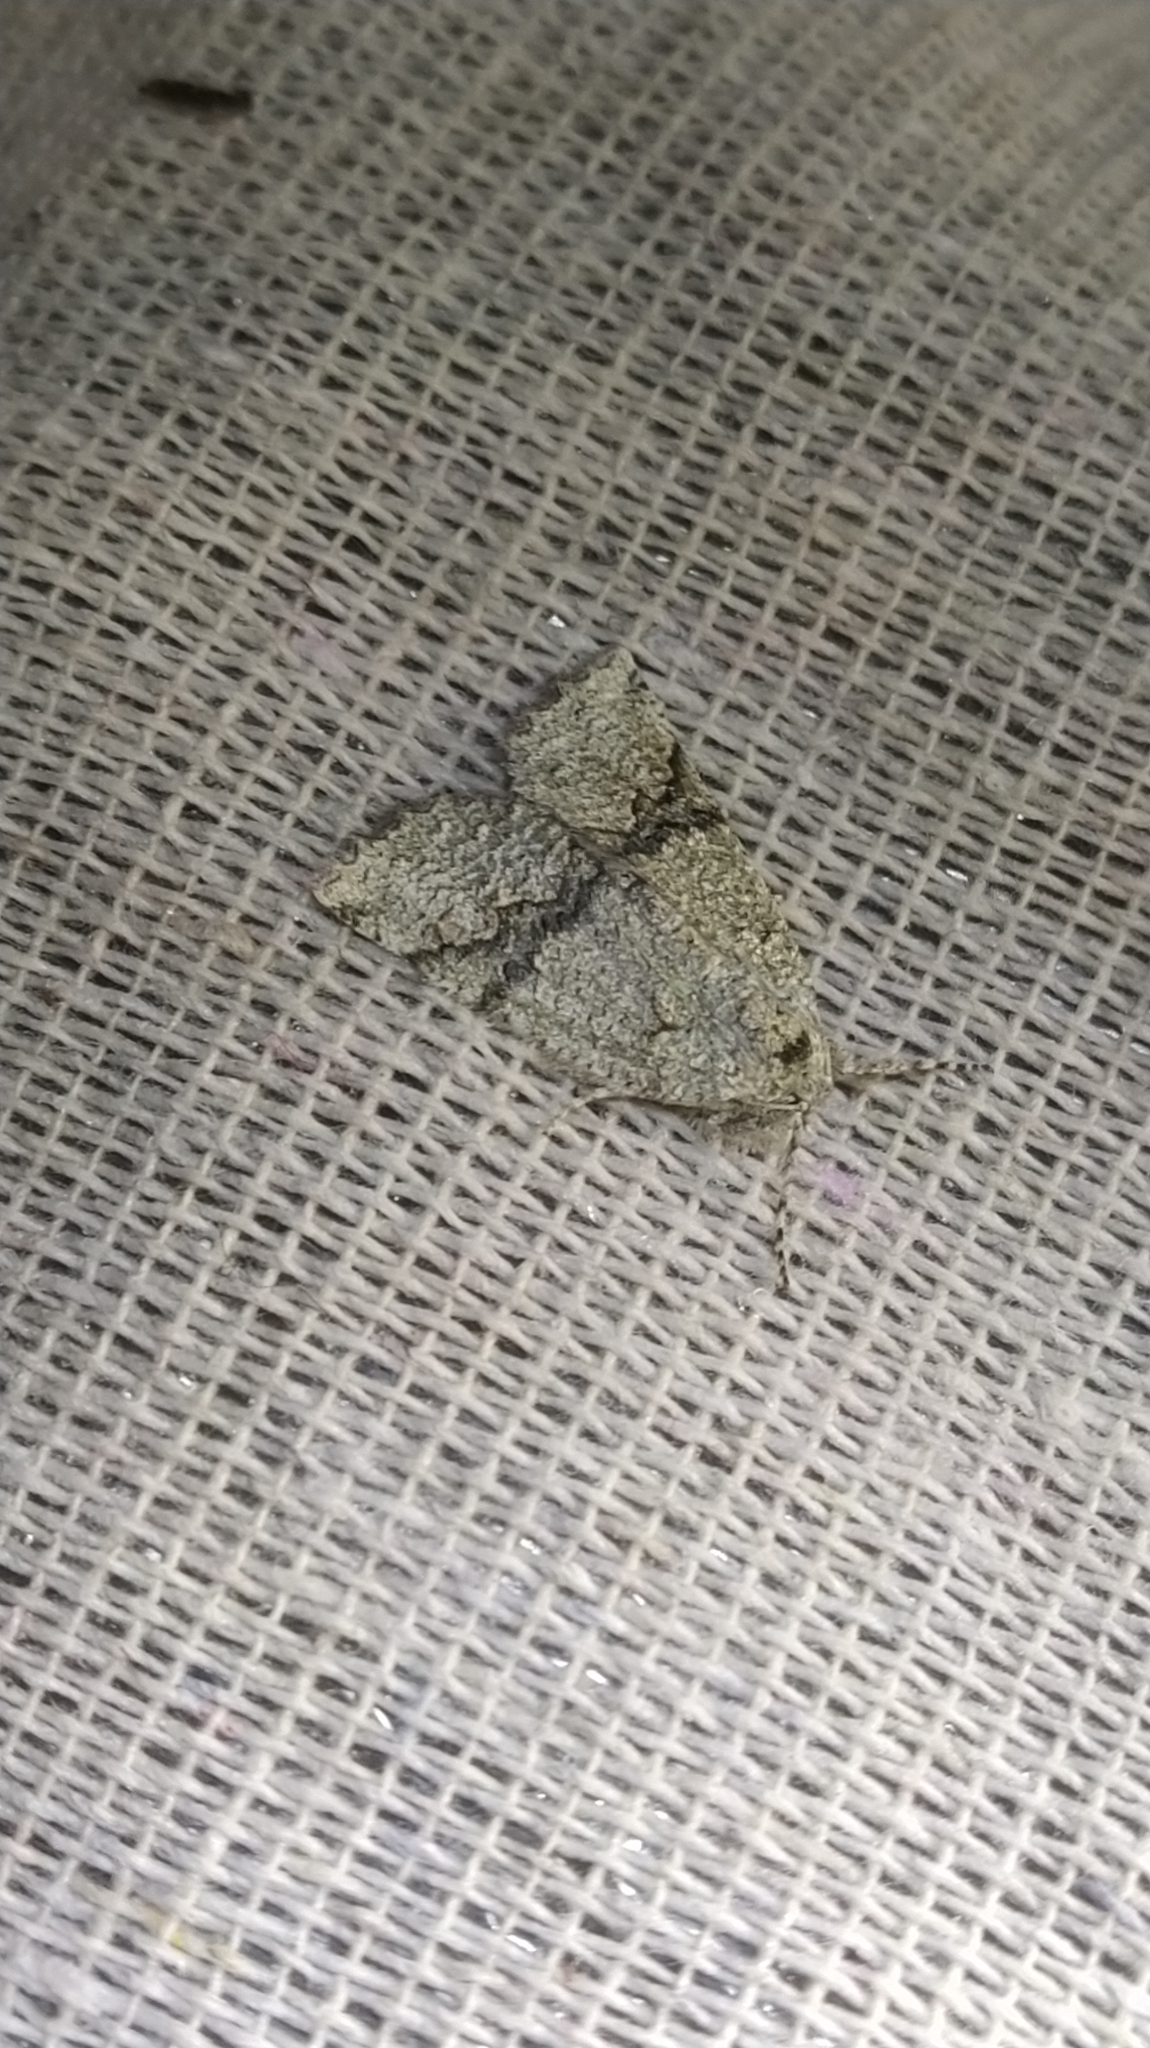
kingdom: Animalia
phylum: Arthropoda
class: Insecta
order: Lepidoptera
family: Geometridae
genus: Declana
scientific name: Declana floccosa
